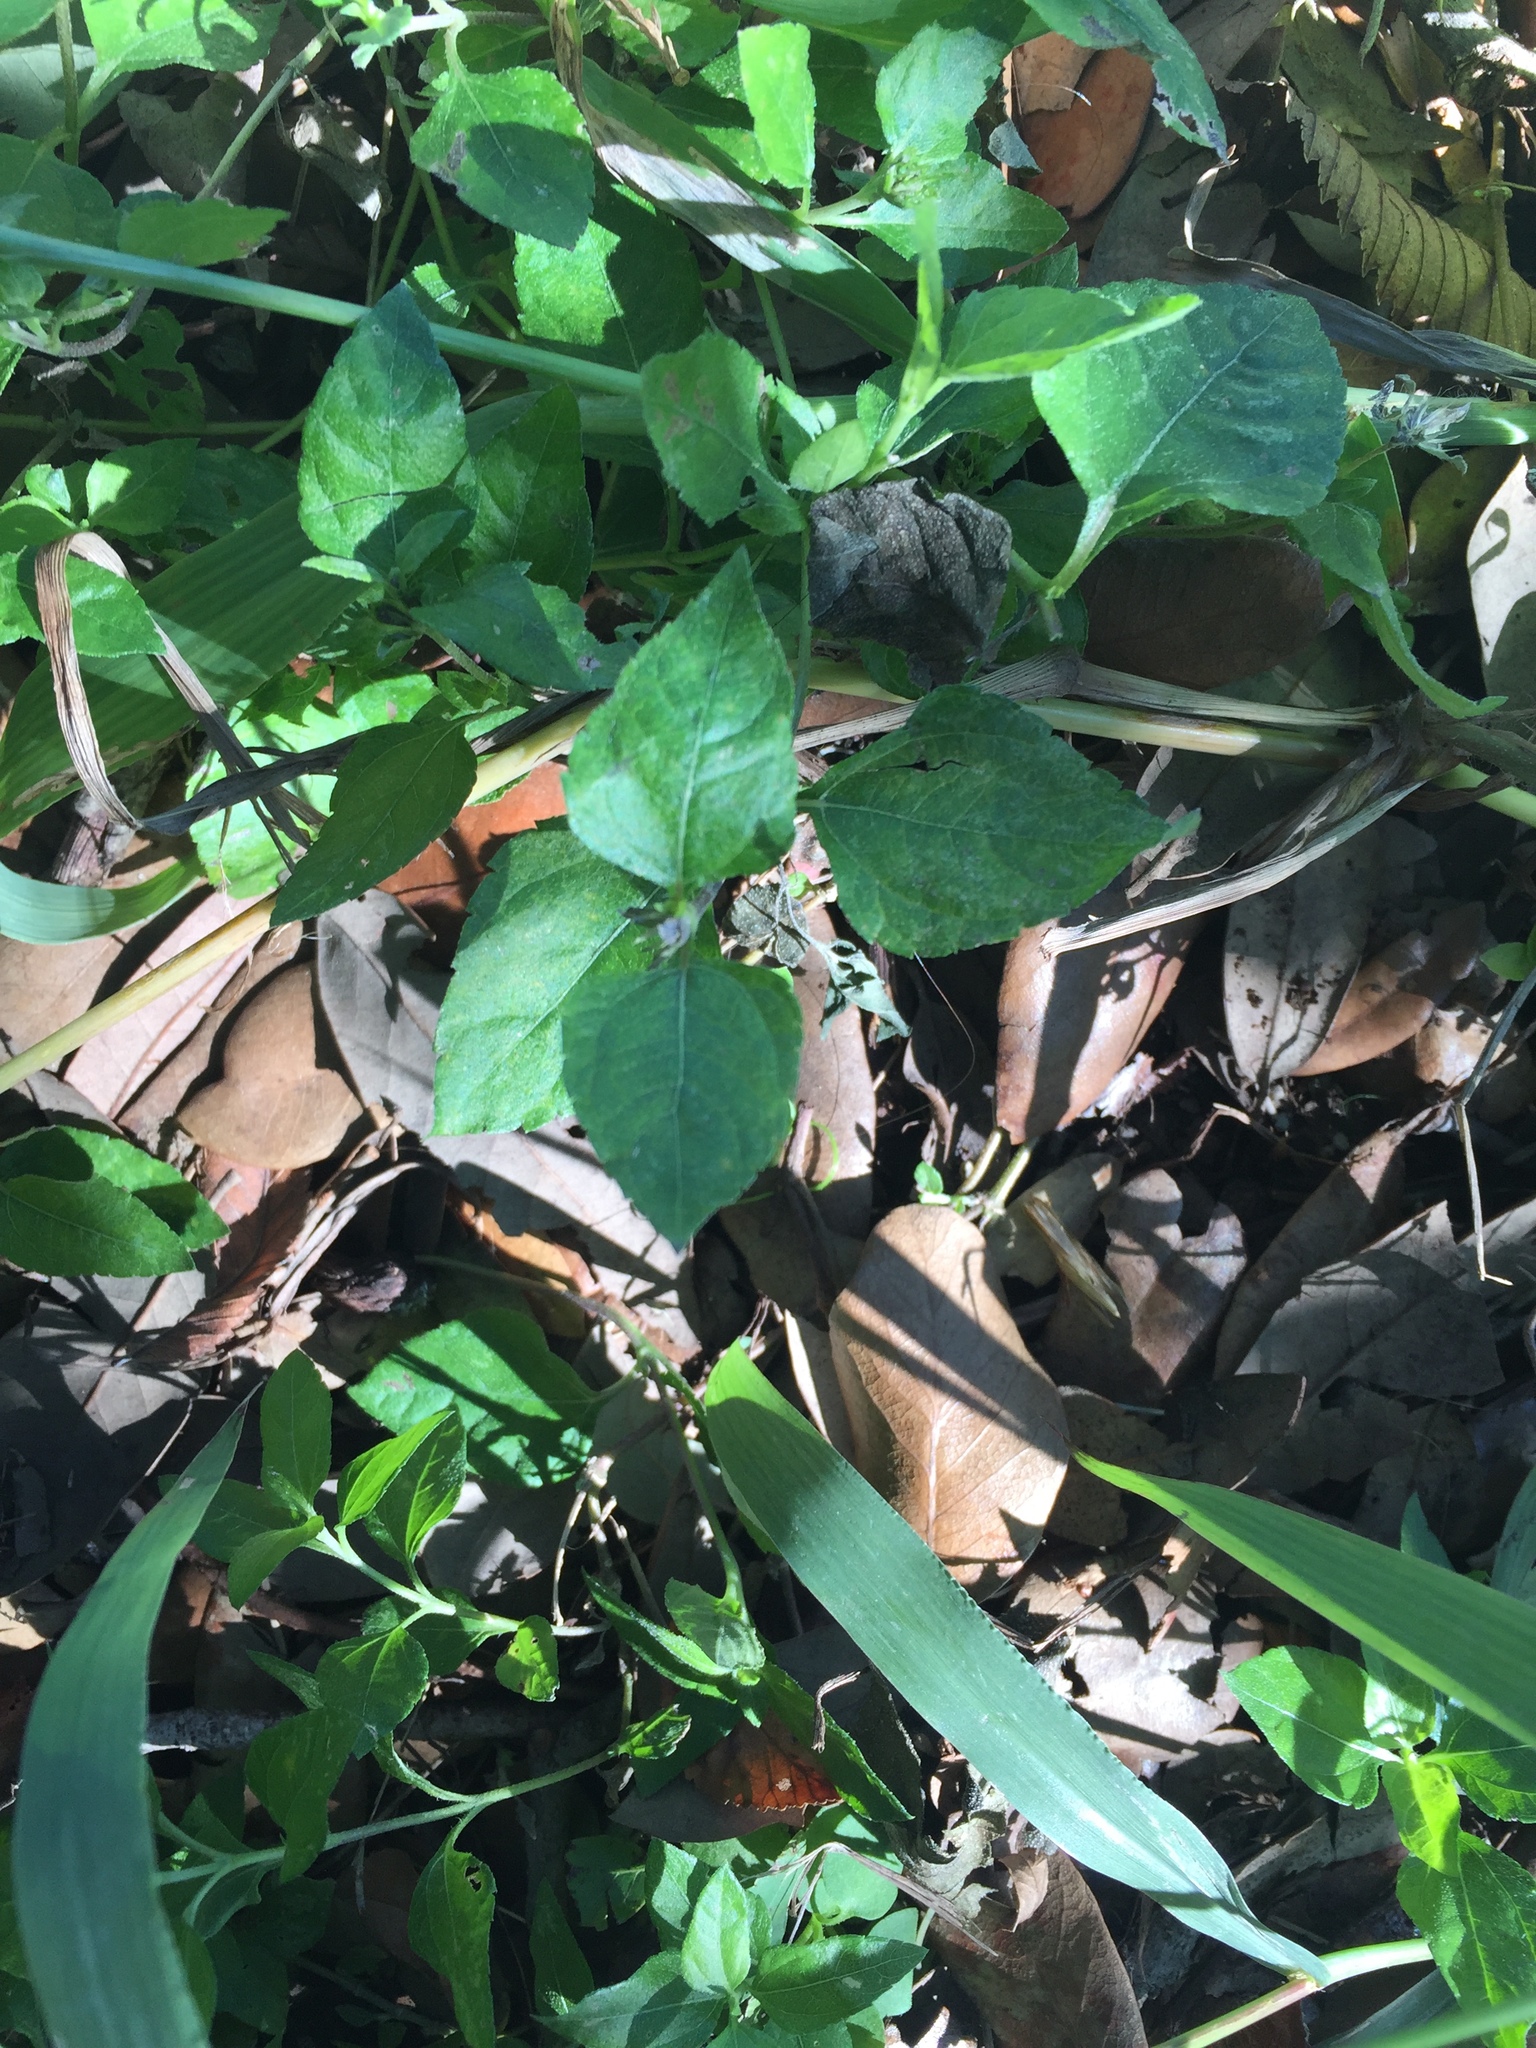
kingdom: Plantae
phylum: Tracheophyta
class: Magnoliopsida
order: Asterales
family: Asteraceae
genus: Calyptocarpus
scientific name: Calyptocarpus vialis
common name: Straggler daisy
